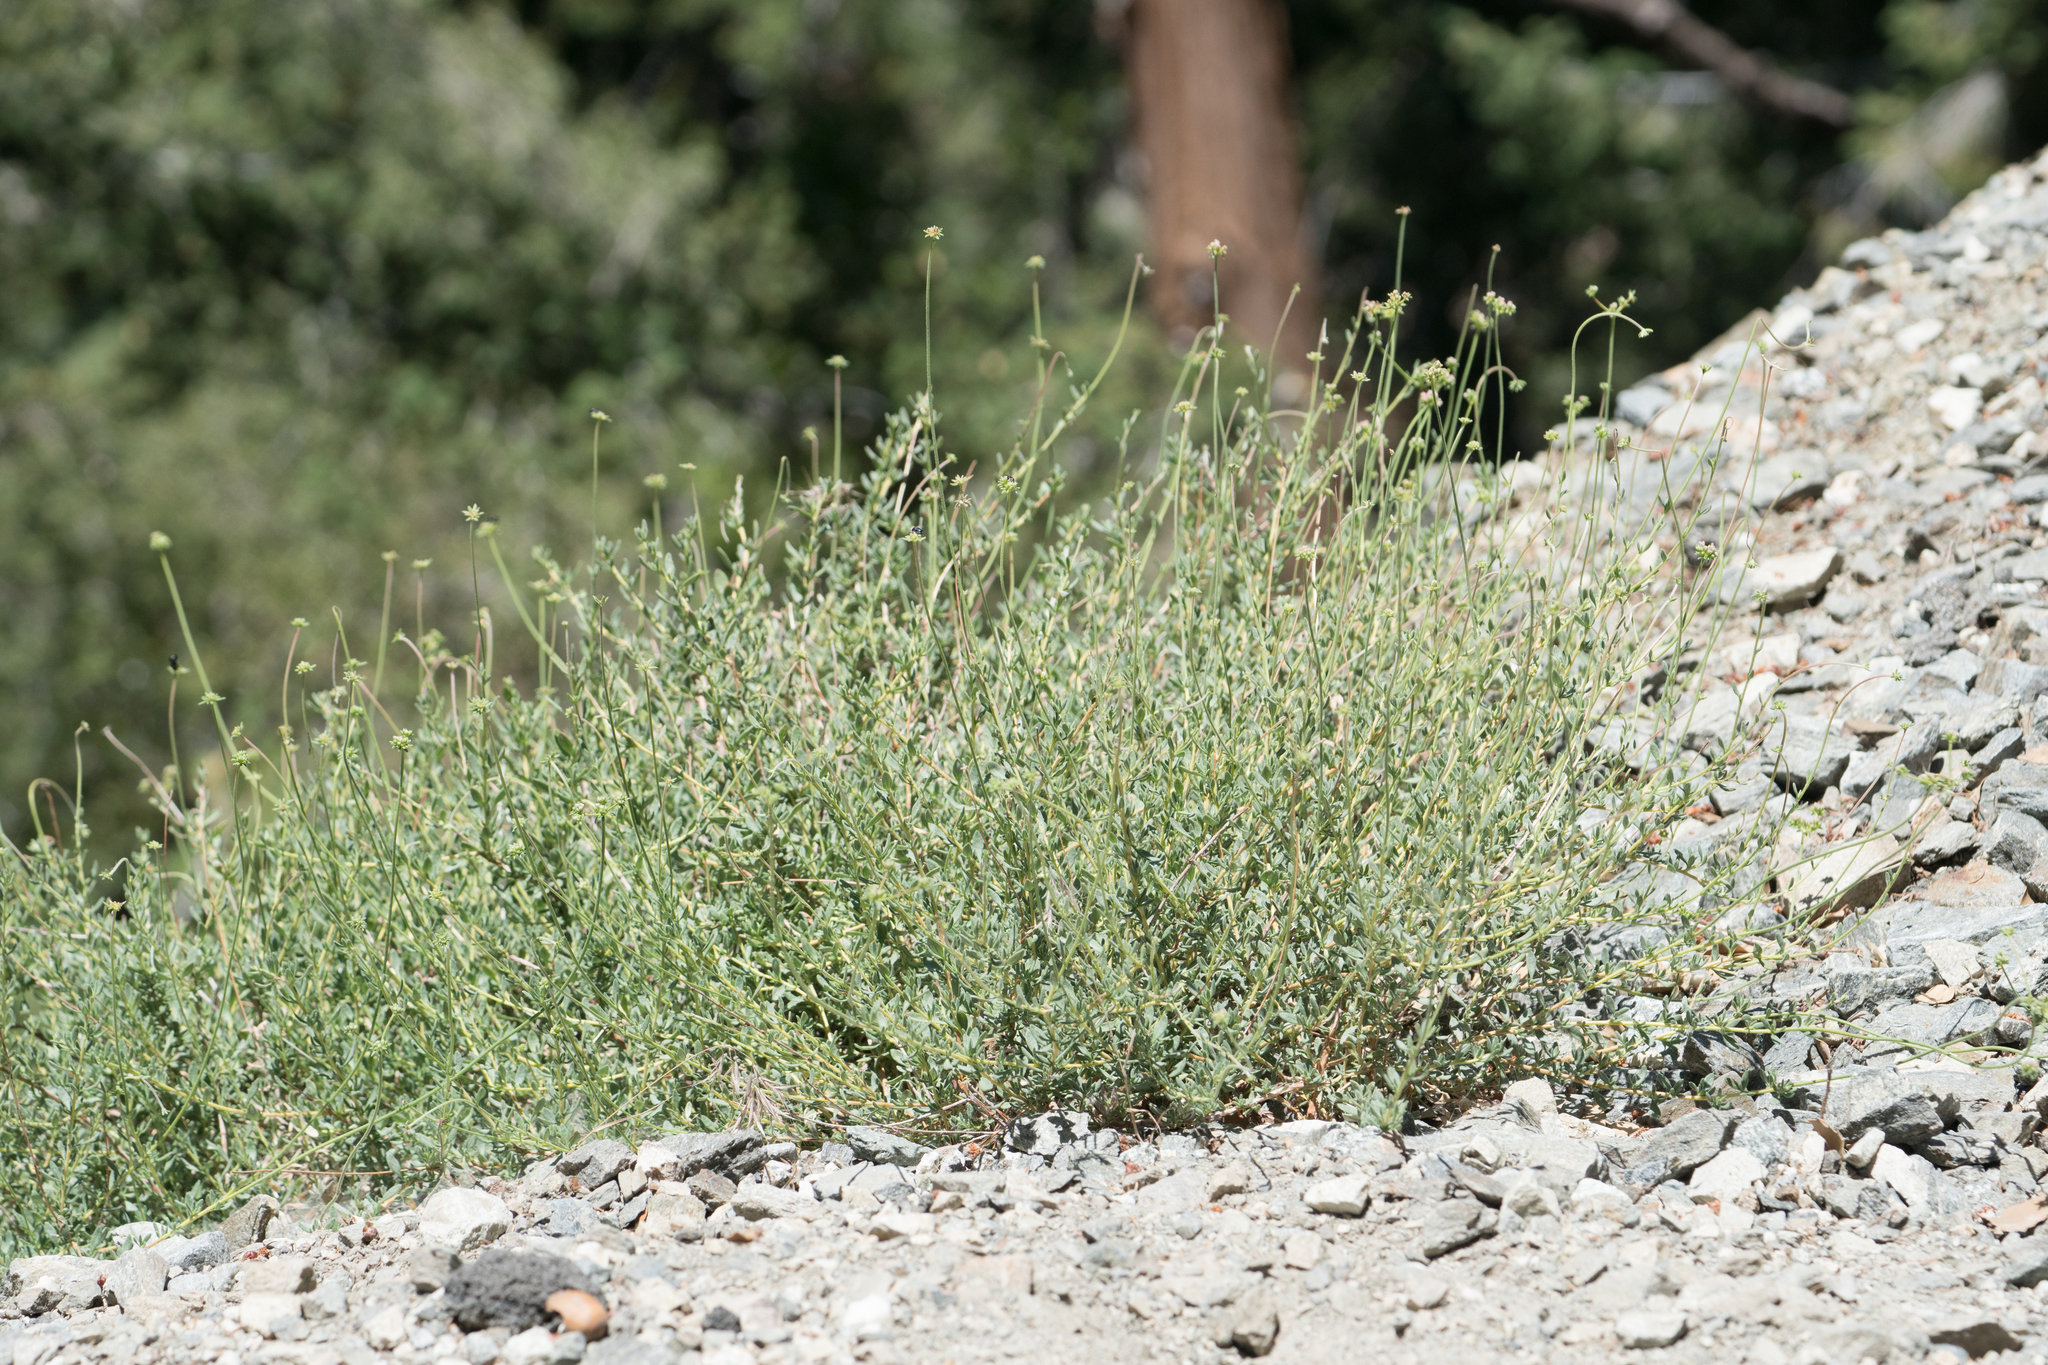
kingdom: Plantae
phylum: Tracheophyta
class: Magnoliopsida
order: Caryophyllales
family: Polygonaceae
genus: Eriogonum
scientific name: Eriogonum fasciculatum
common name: California wild buckwheat
